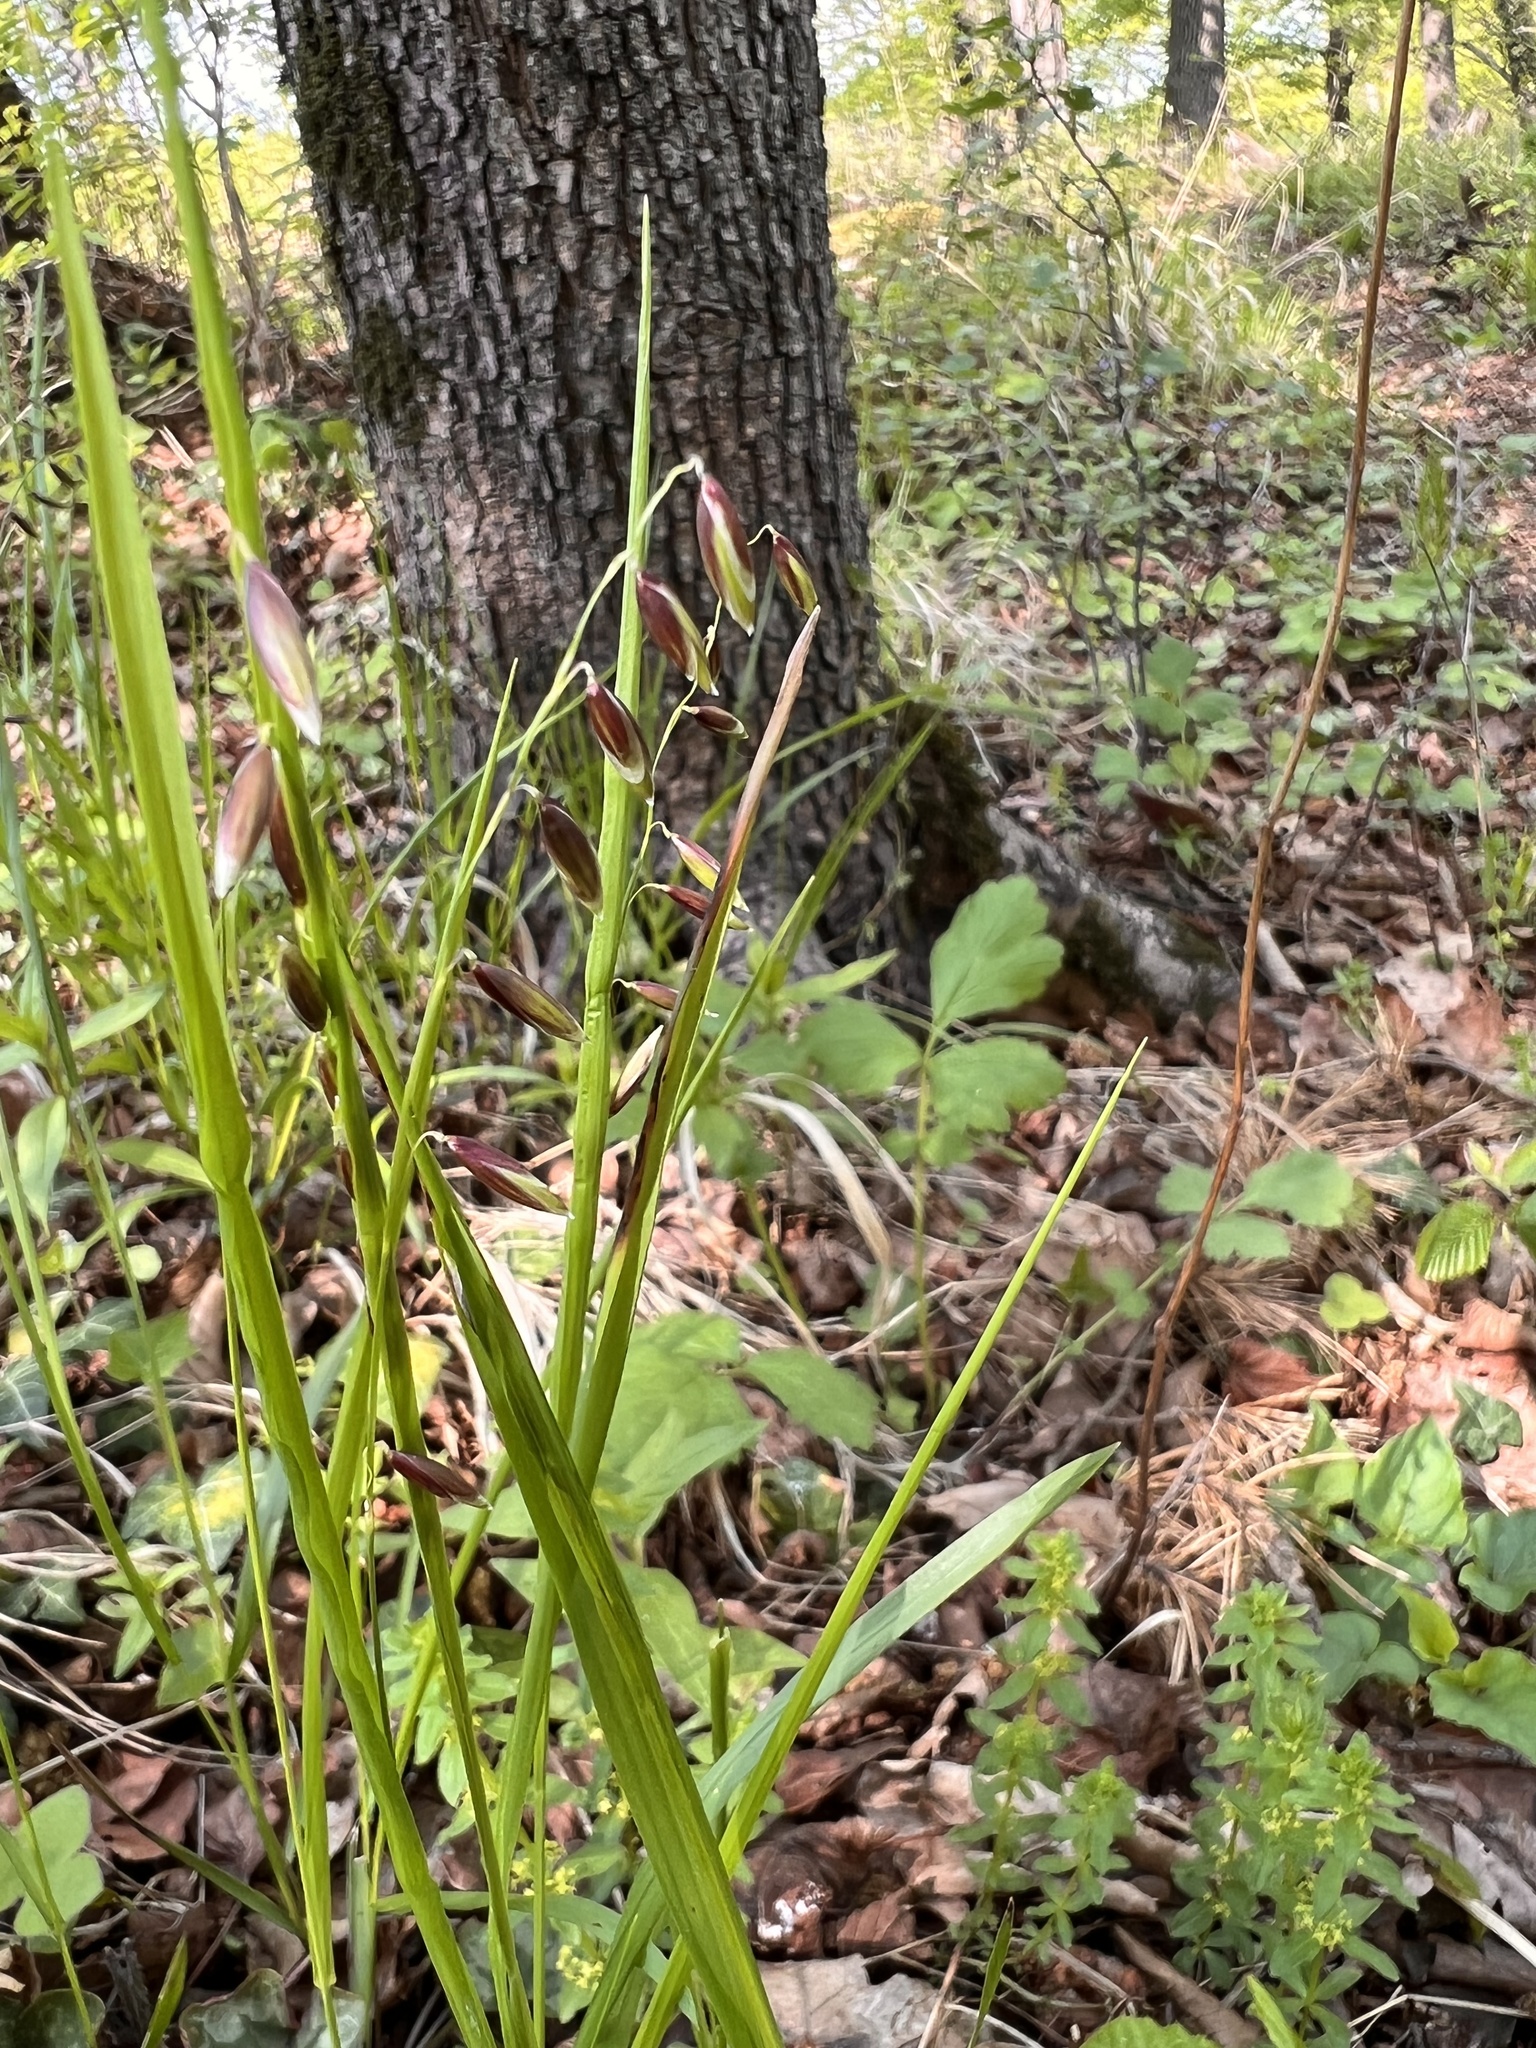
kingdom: Plantae
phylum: Tracheophyta
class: Liliopsida
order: Poales
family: Poaceae
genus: Melica
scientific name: Melica nutans
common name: Mountain melick
